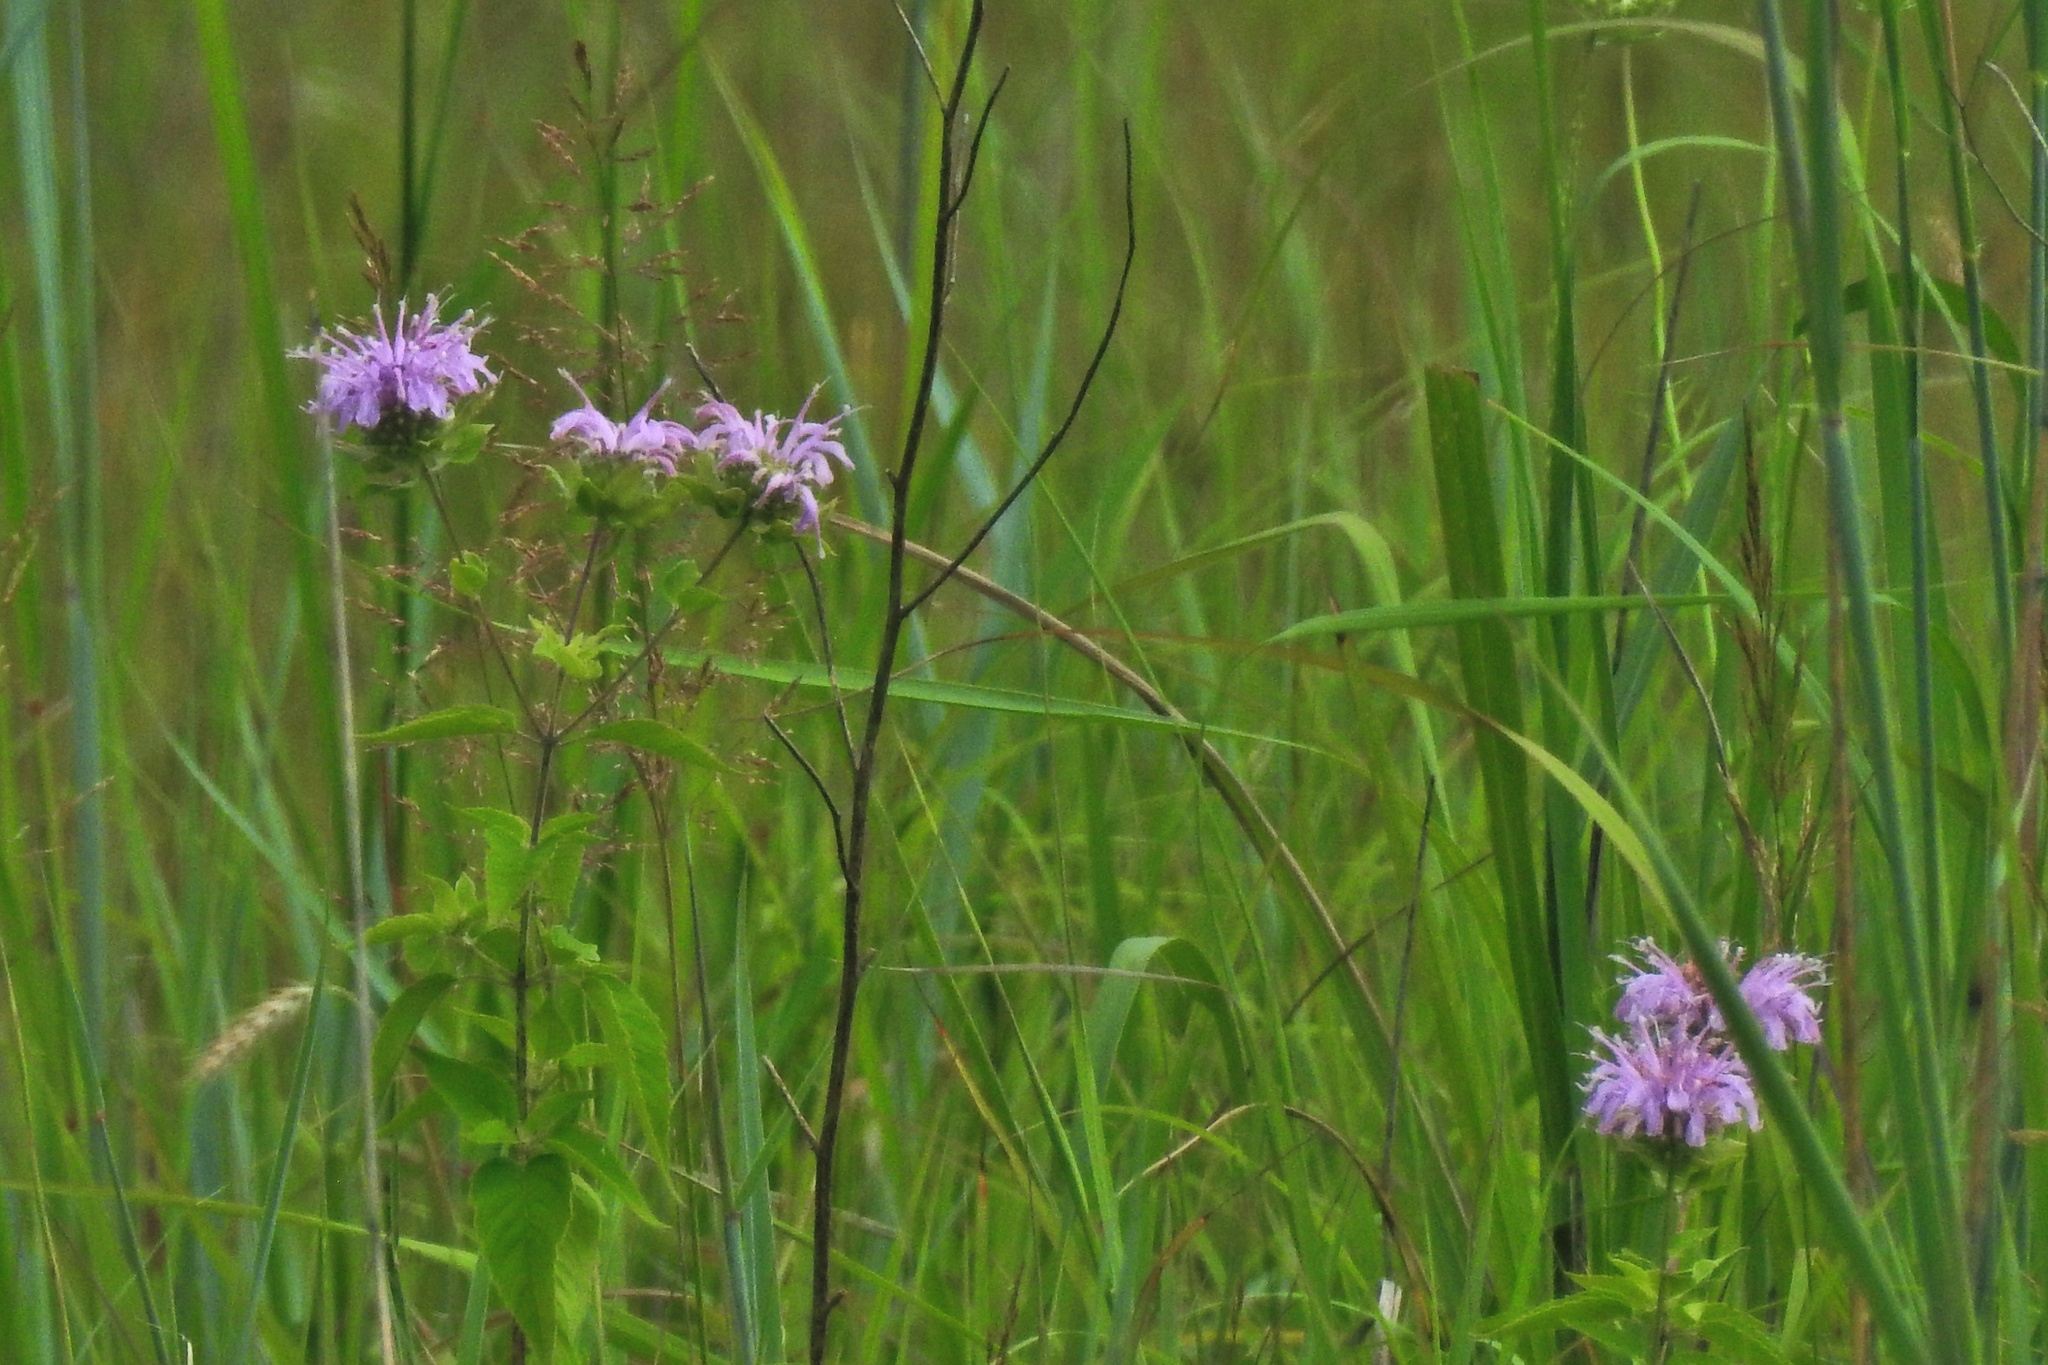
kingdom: Plantae
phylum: Tracheophyta
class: Magnoliopsida
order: Lamiales
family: Lamiaceae
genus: Monarda
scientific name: Monarda fistulosa
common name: Purple beebalm
